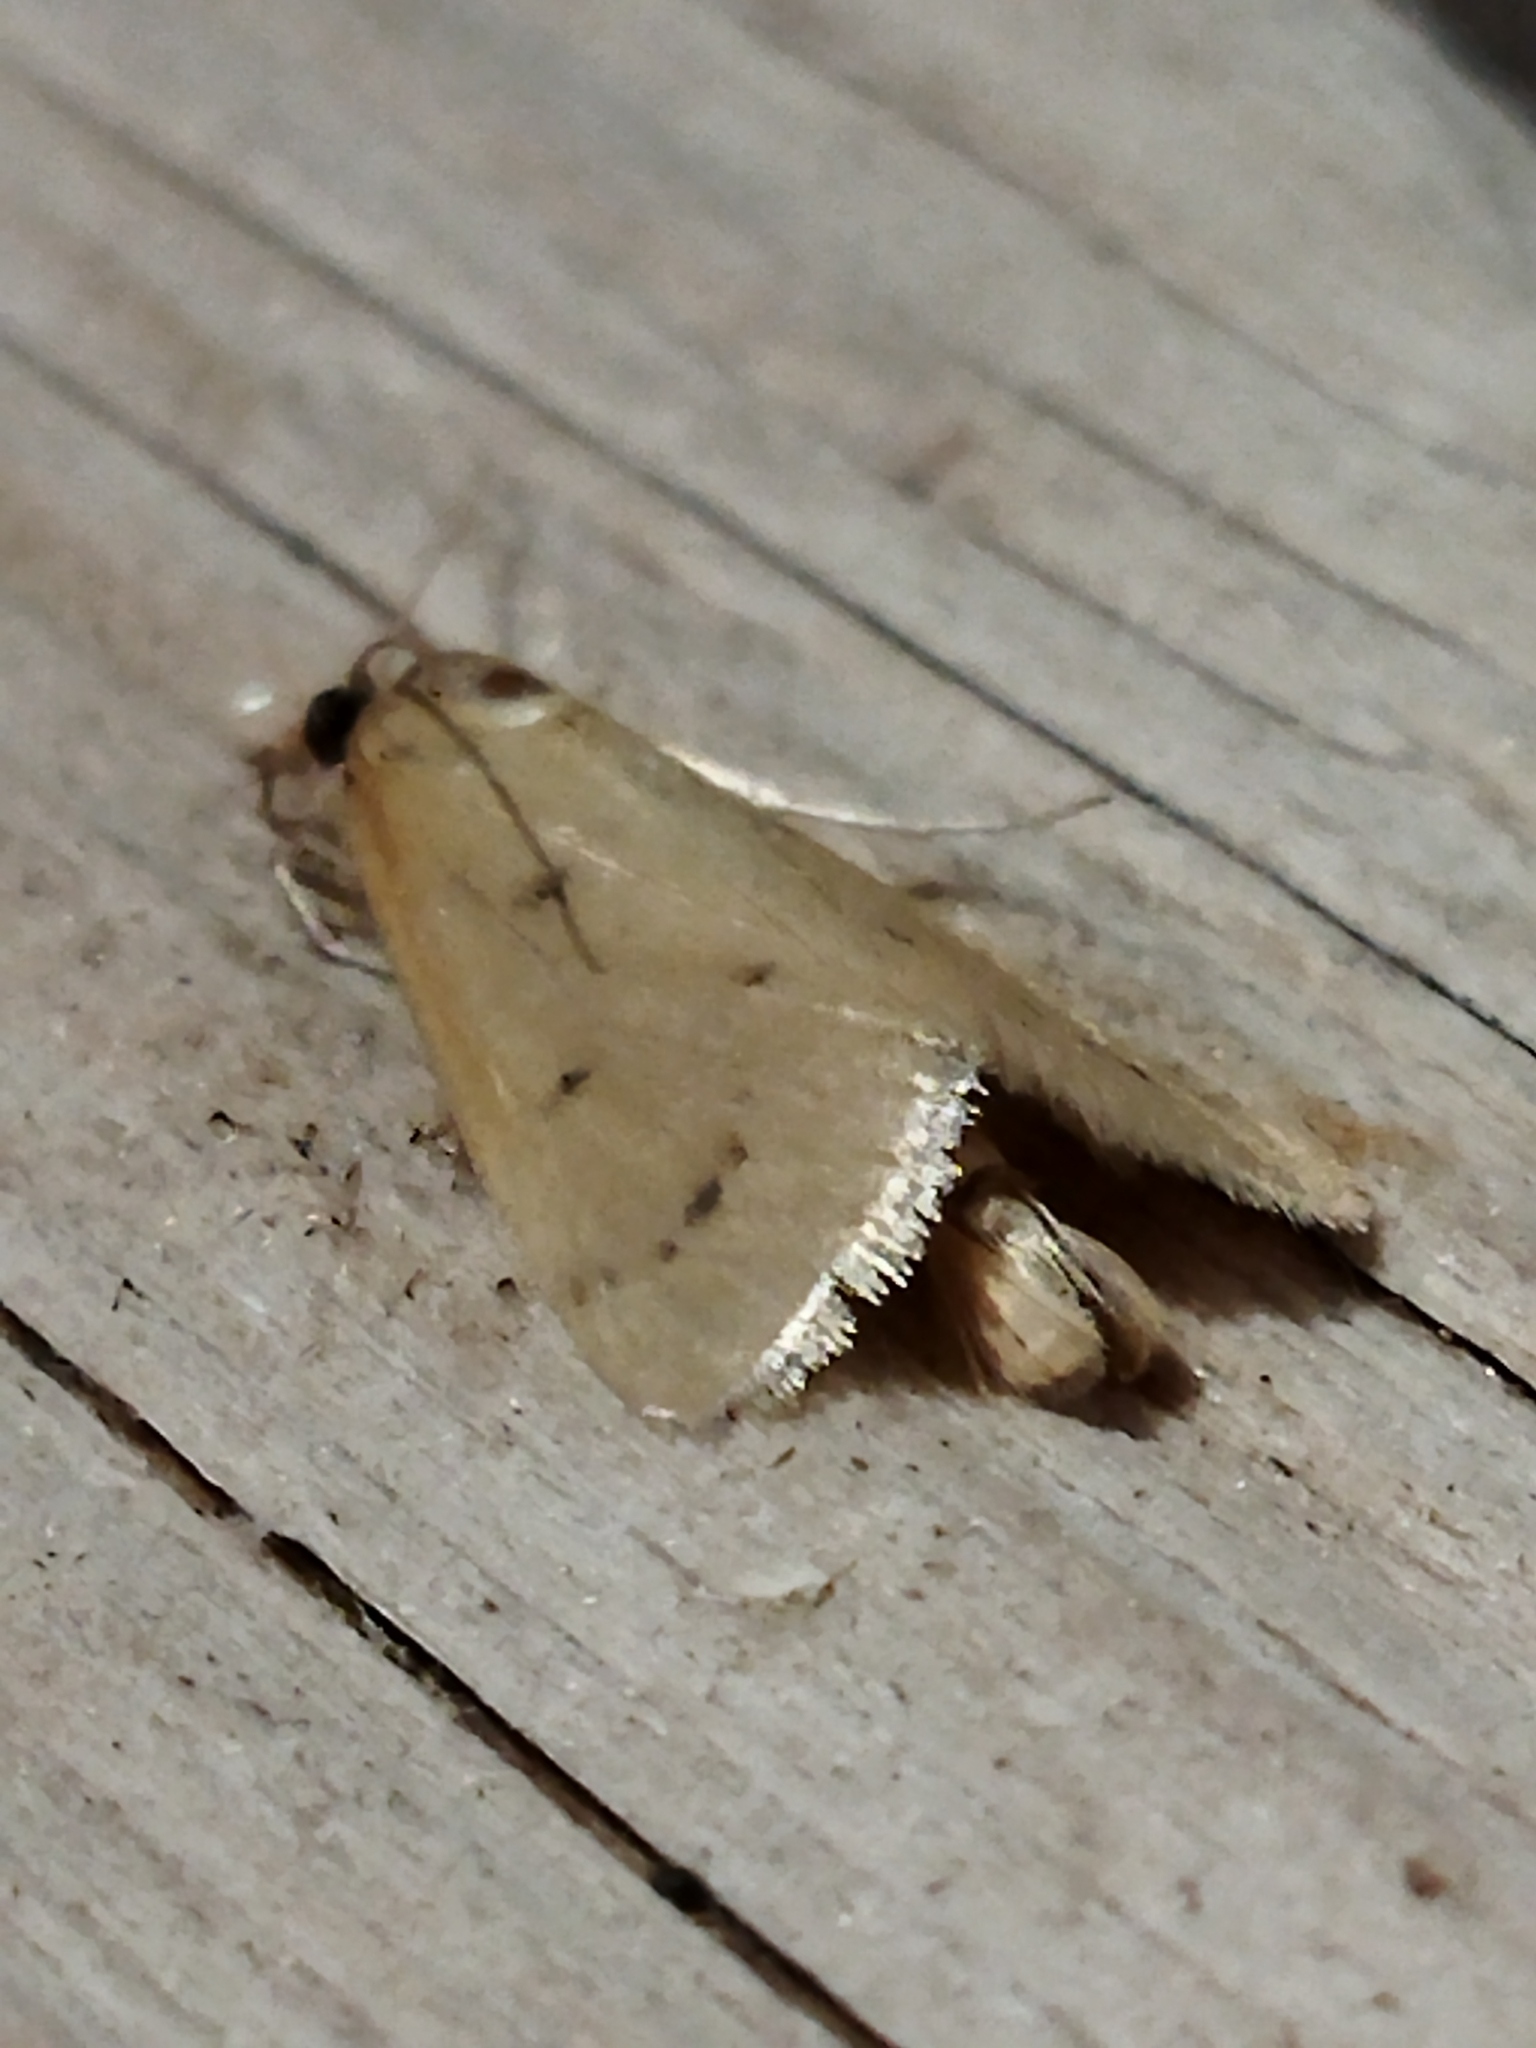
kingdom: Animalia
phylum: Arthropoda
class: Insecta
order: Lepidoptera
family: Crambidae
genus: Achyra
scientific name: Achyra nudalis
